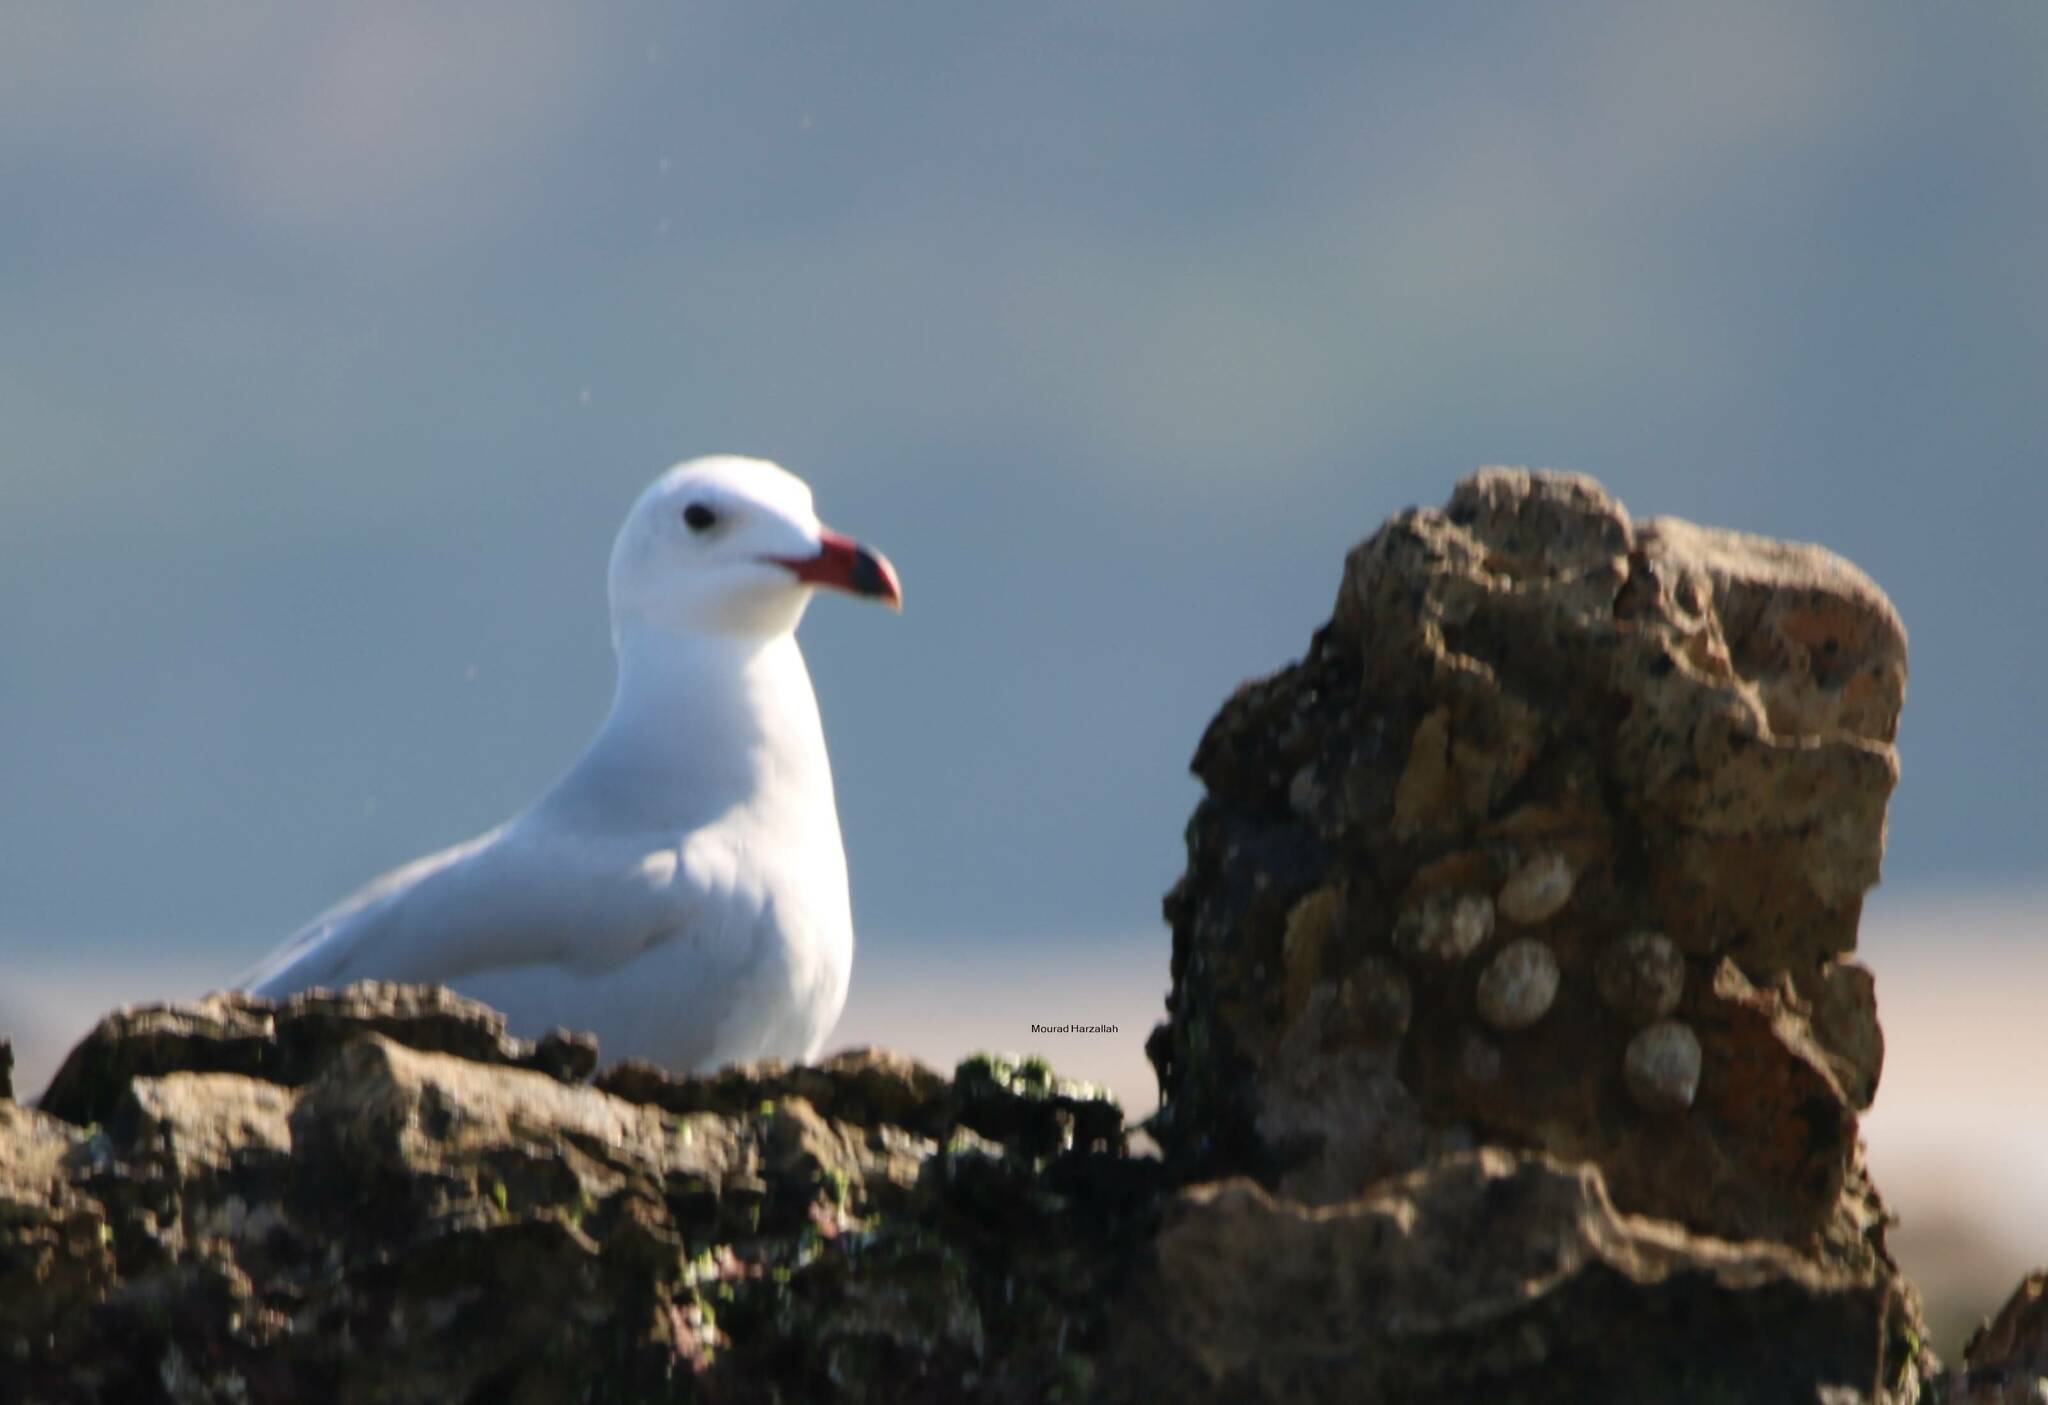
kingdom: Animalia
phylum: Chordata
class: Aves
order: Charadriiformes
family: Laridae
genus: Ichthyaetus
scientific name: Ichthyaetus audouinii
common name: Audouin's gull
